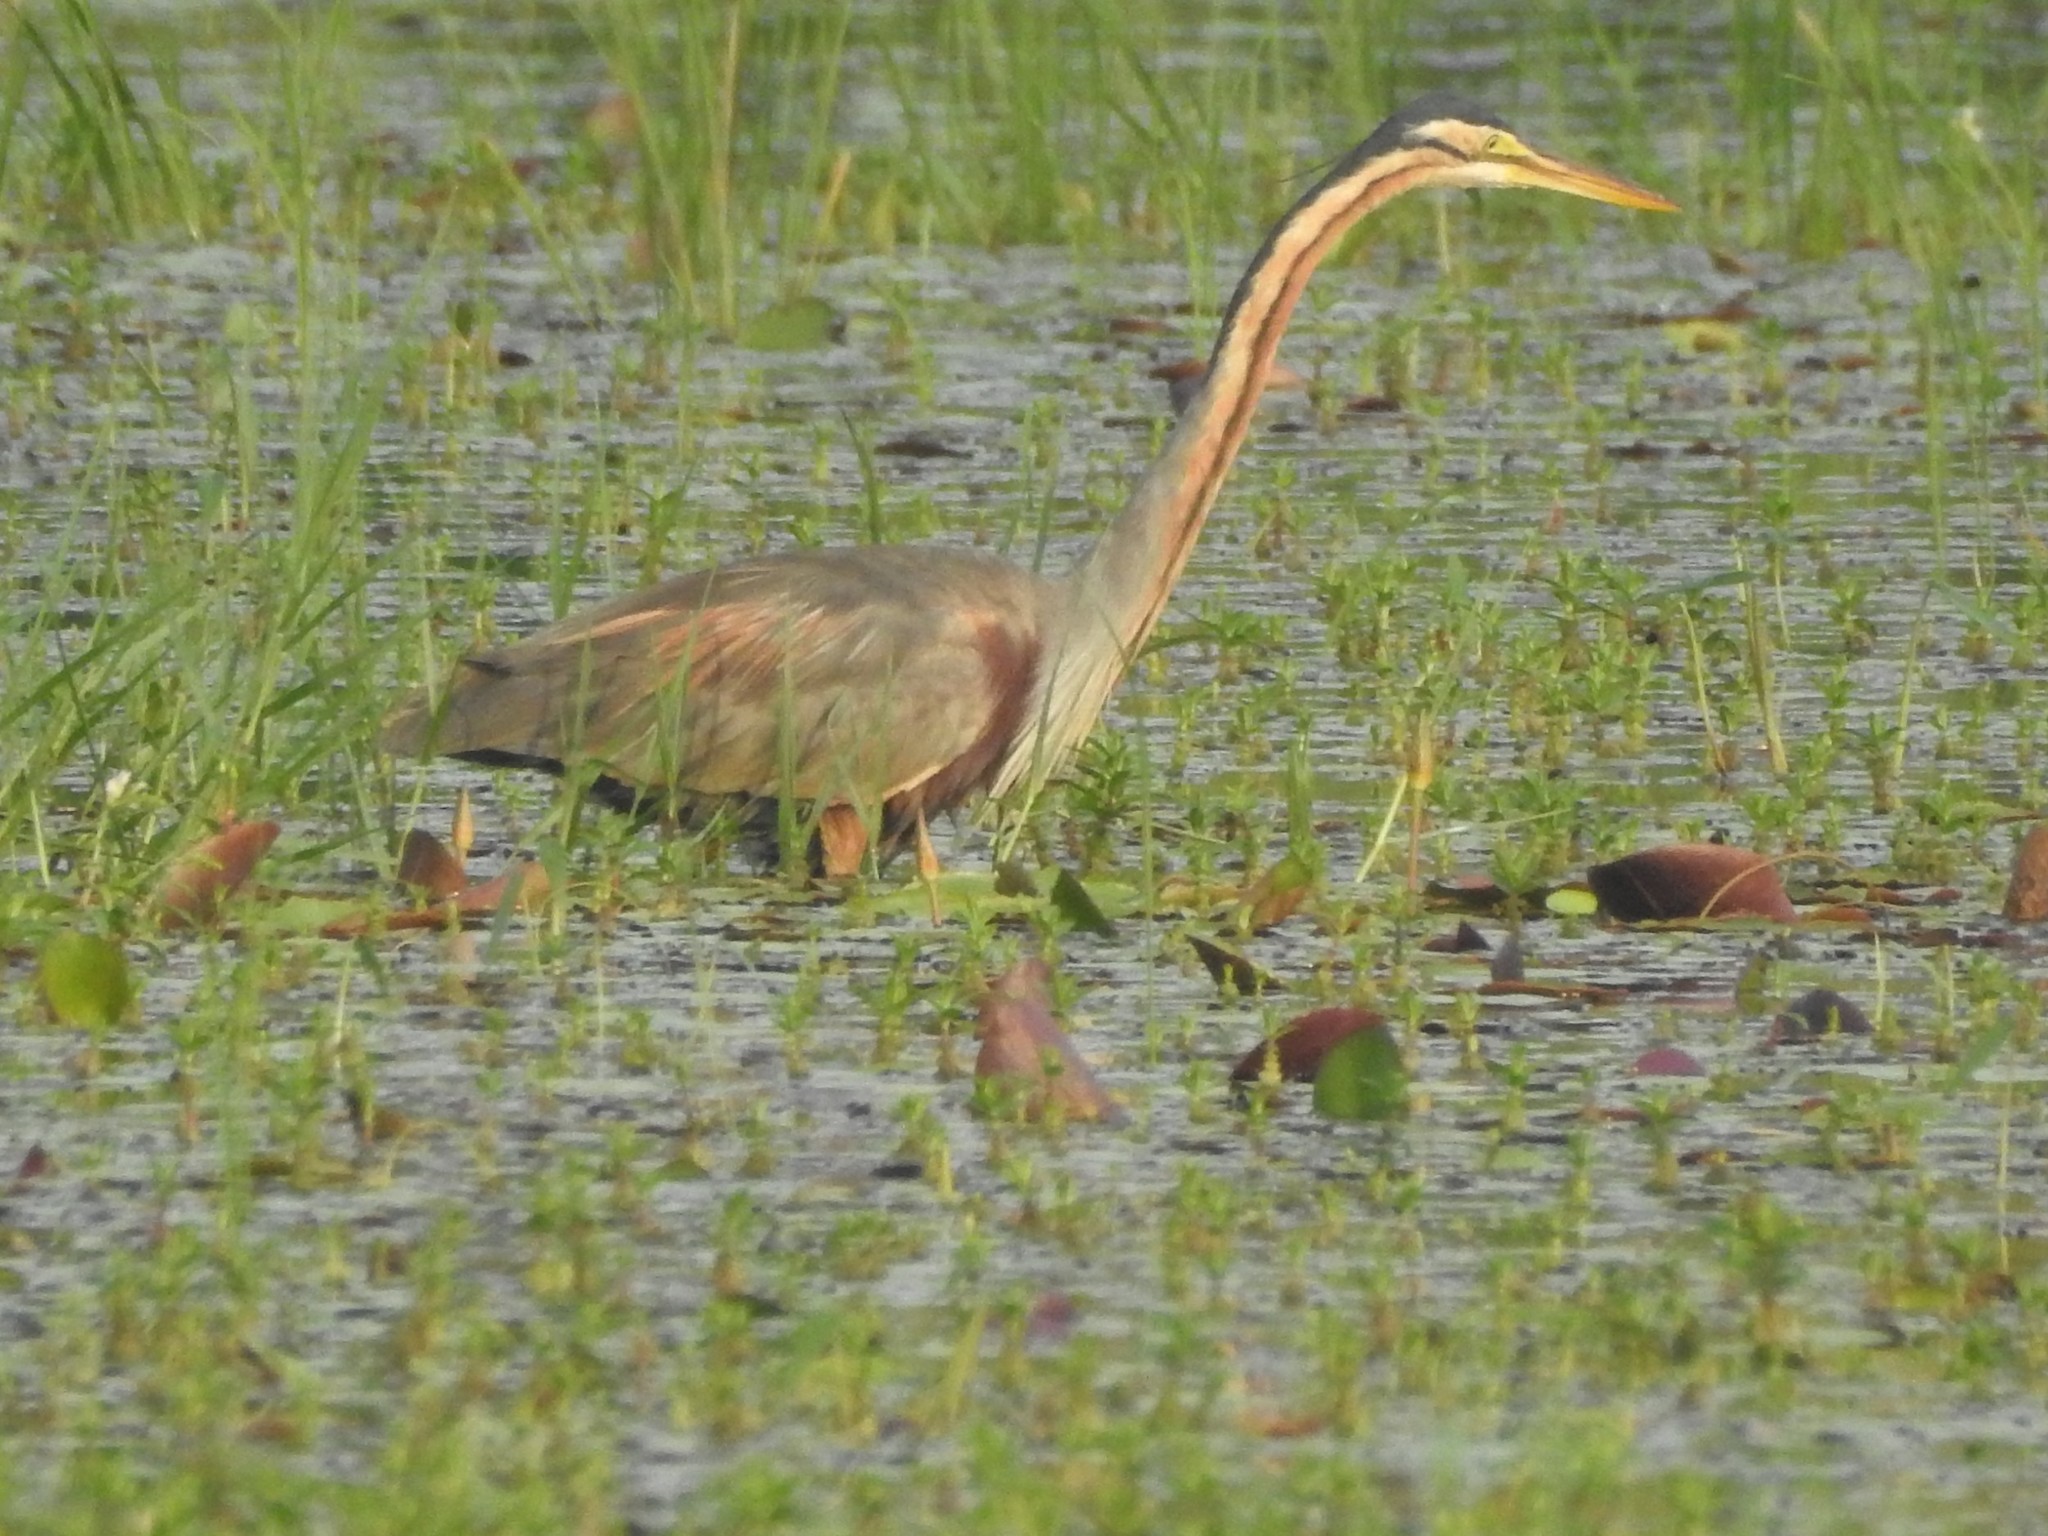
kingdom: Animalia
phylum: Chordata
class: Aves
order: Pelecaniformes
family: Ardeidae
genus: Ardea
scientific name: Ardea purpurea
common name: Purple heron
